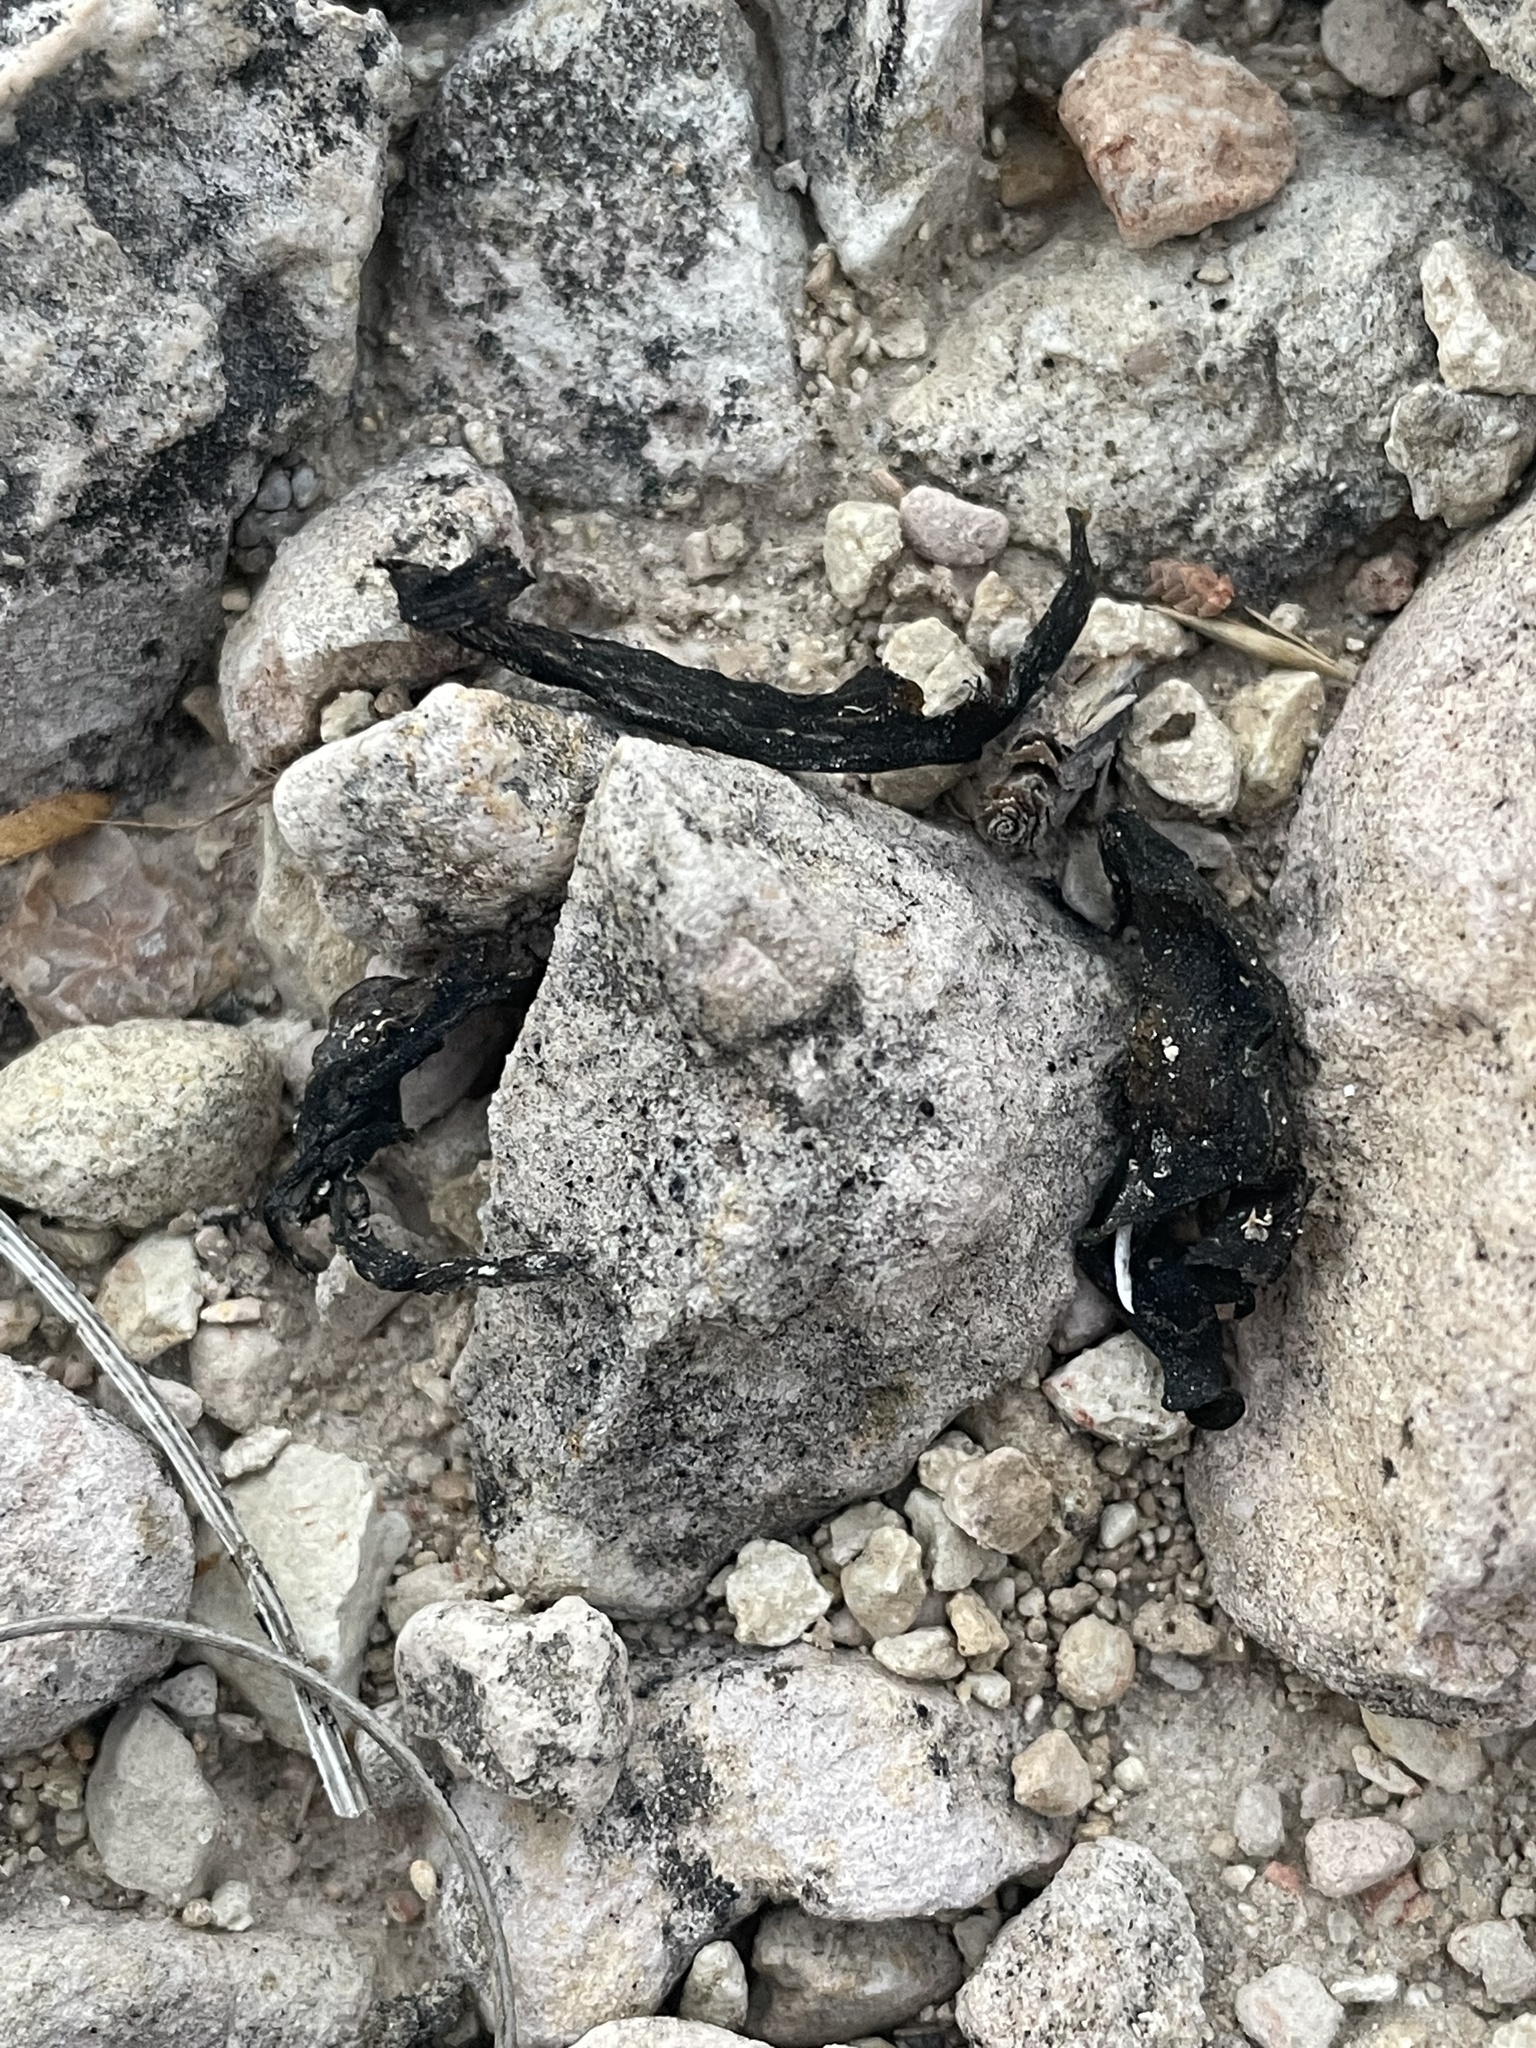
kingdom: Bacteria
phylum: Cyanobacteria
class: Cyanobacteriia
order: Cyanobacteriales
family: Nostocaceae
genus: Nostoc
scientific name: Nostoc commune
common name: Star jelly
